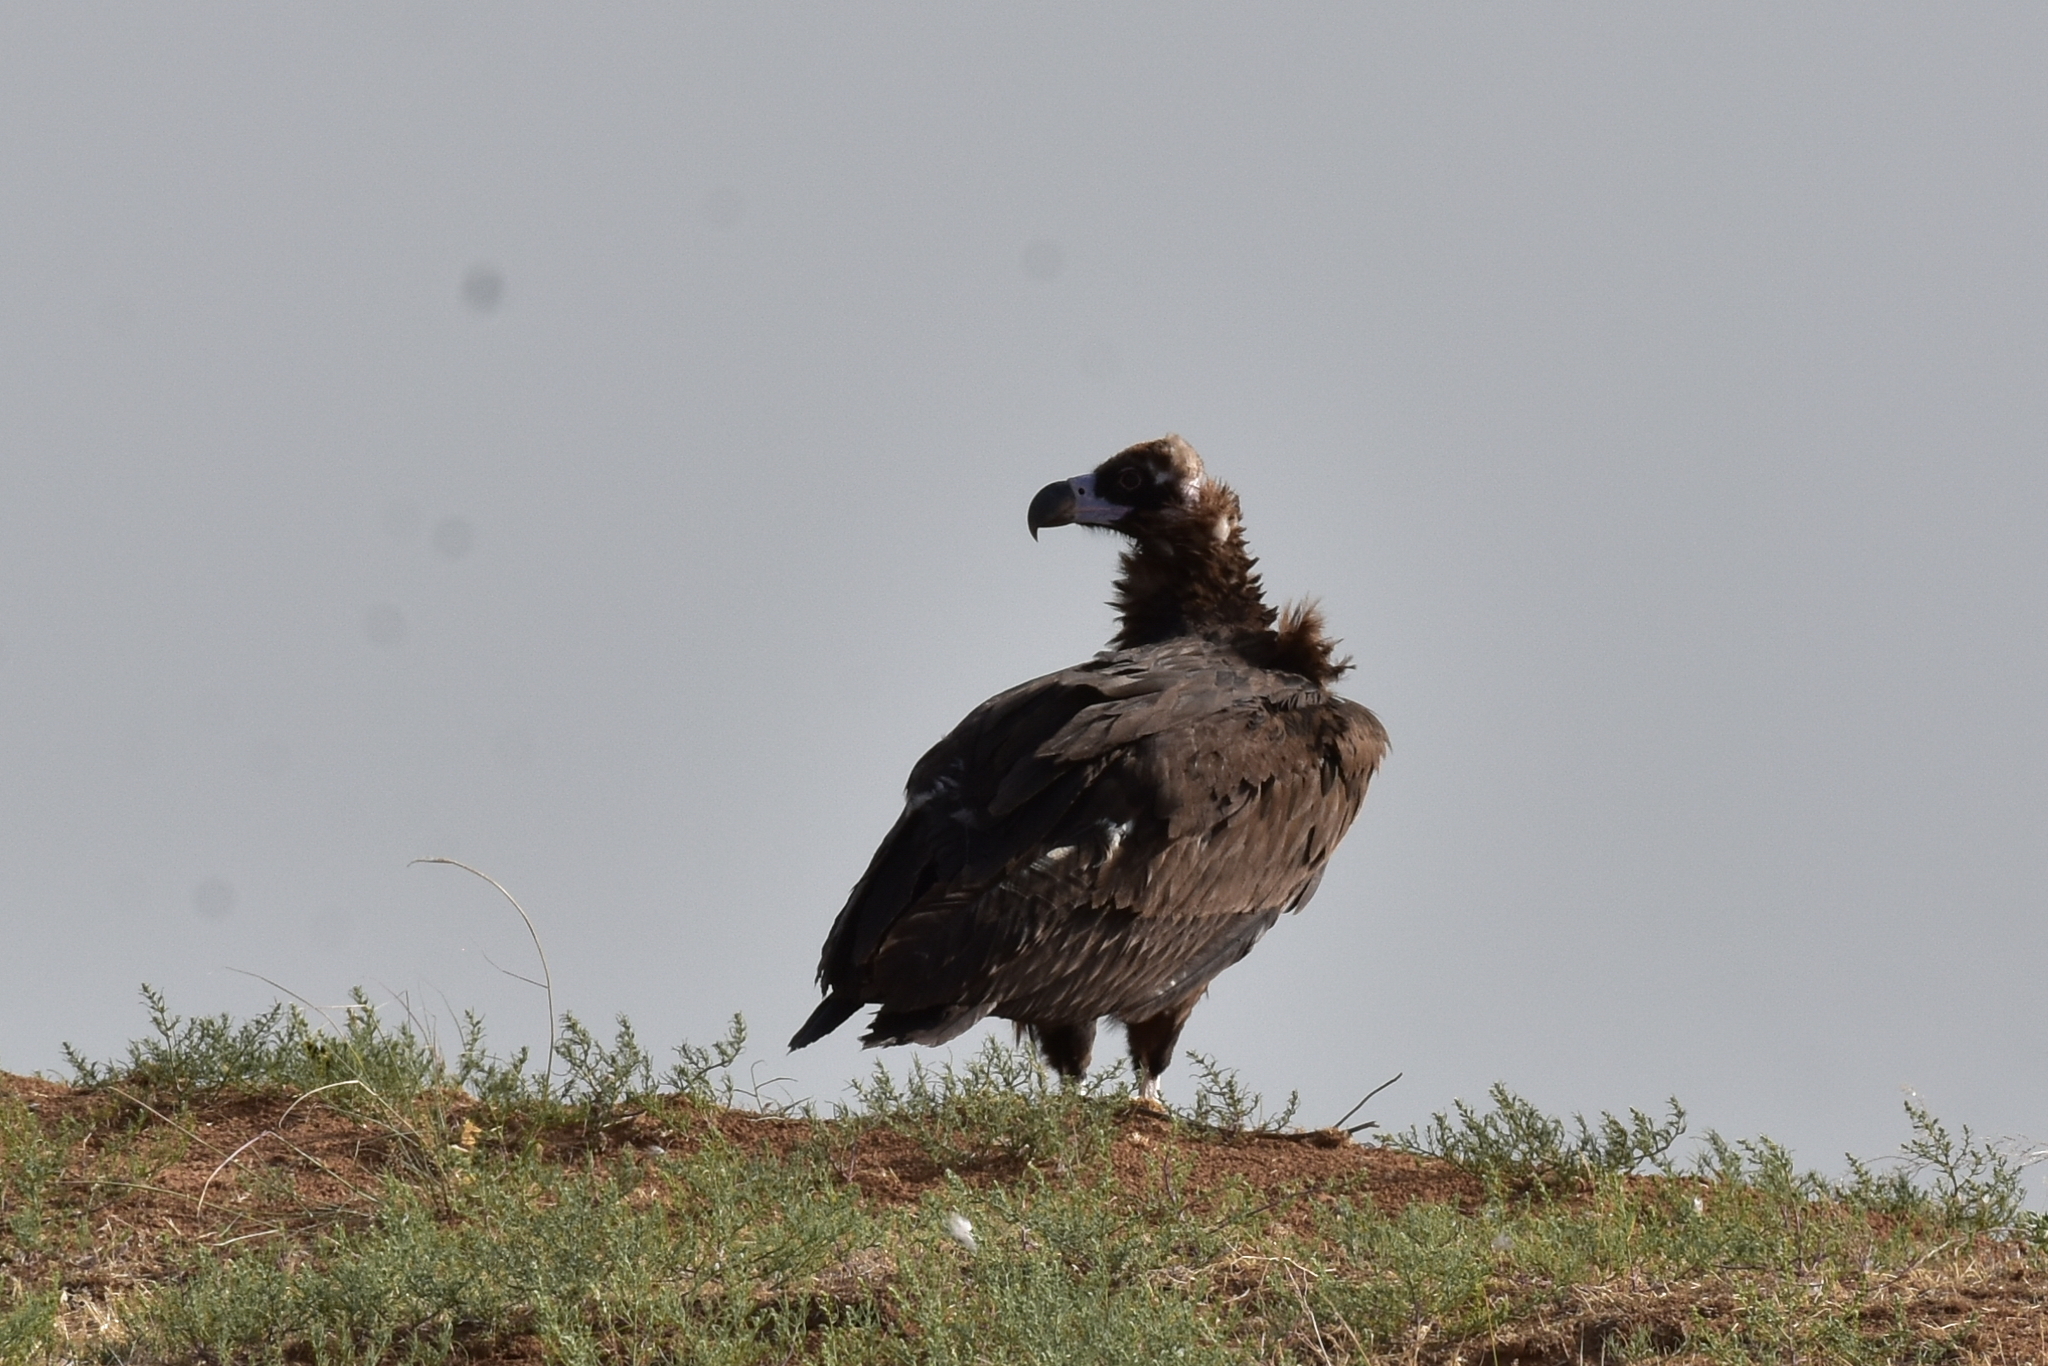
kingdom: Animalia
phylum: Chordata
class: Aves
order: Accipitriformes
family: Accipitridae
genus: Aegypius
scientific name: Aegypius monachus
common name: Cinereous vulture
